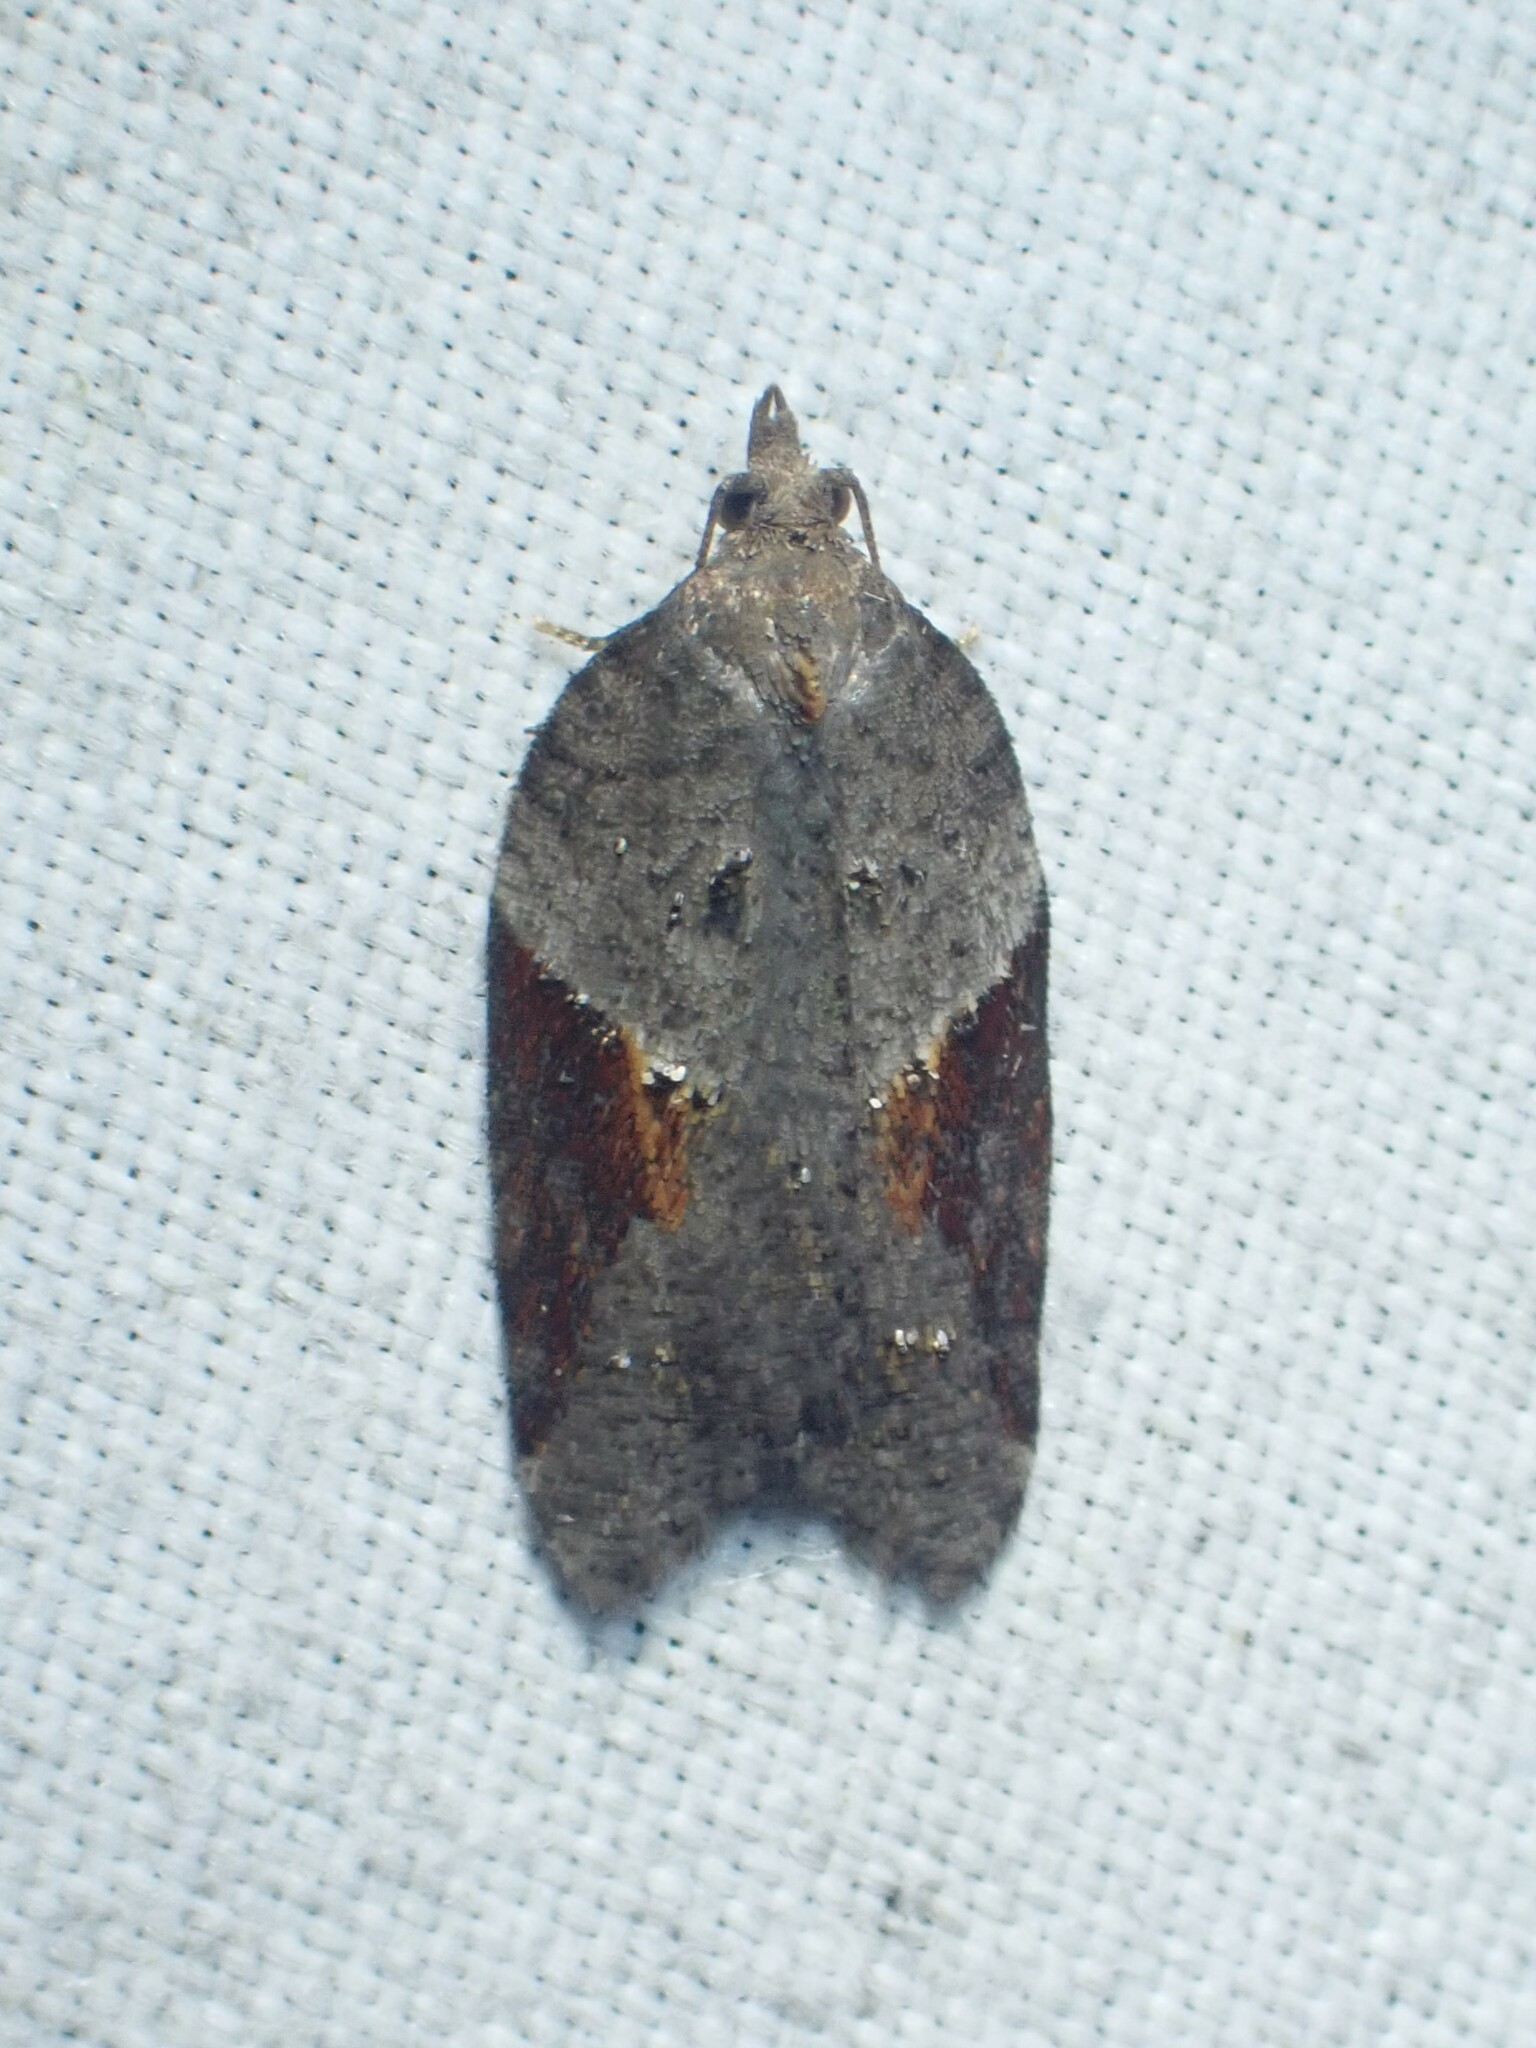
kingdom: Animalia
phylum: Arthropoda
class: Insecta
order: Lepidoptera
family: Tortricidae
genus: Acleris
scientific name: Acleris macdunnoughi
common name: Macdunnough's acleris
